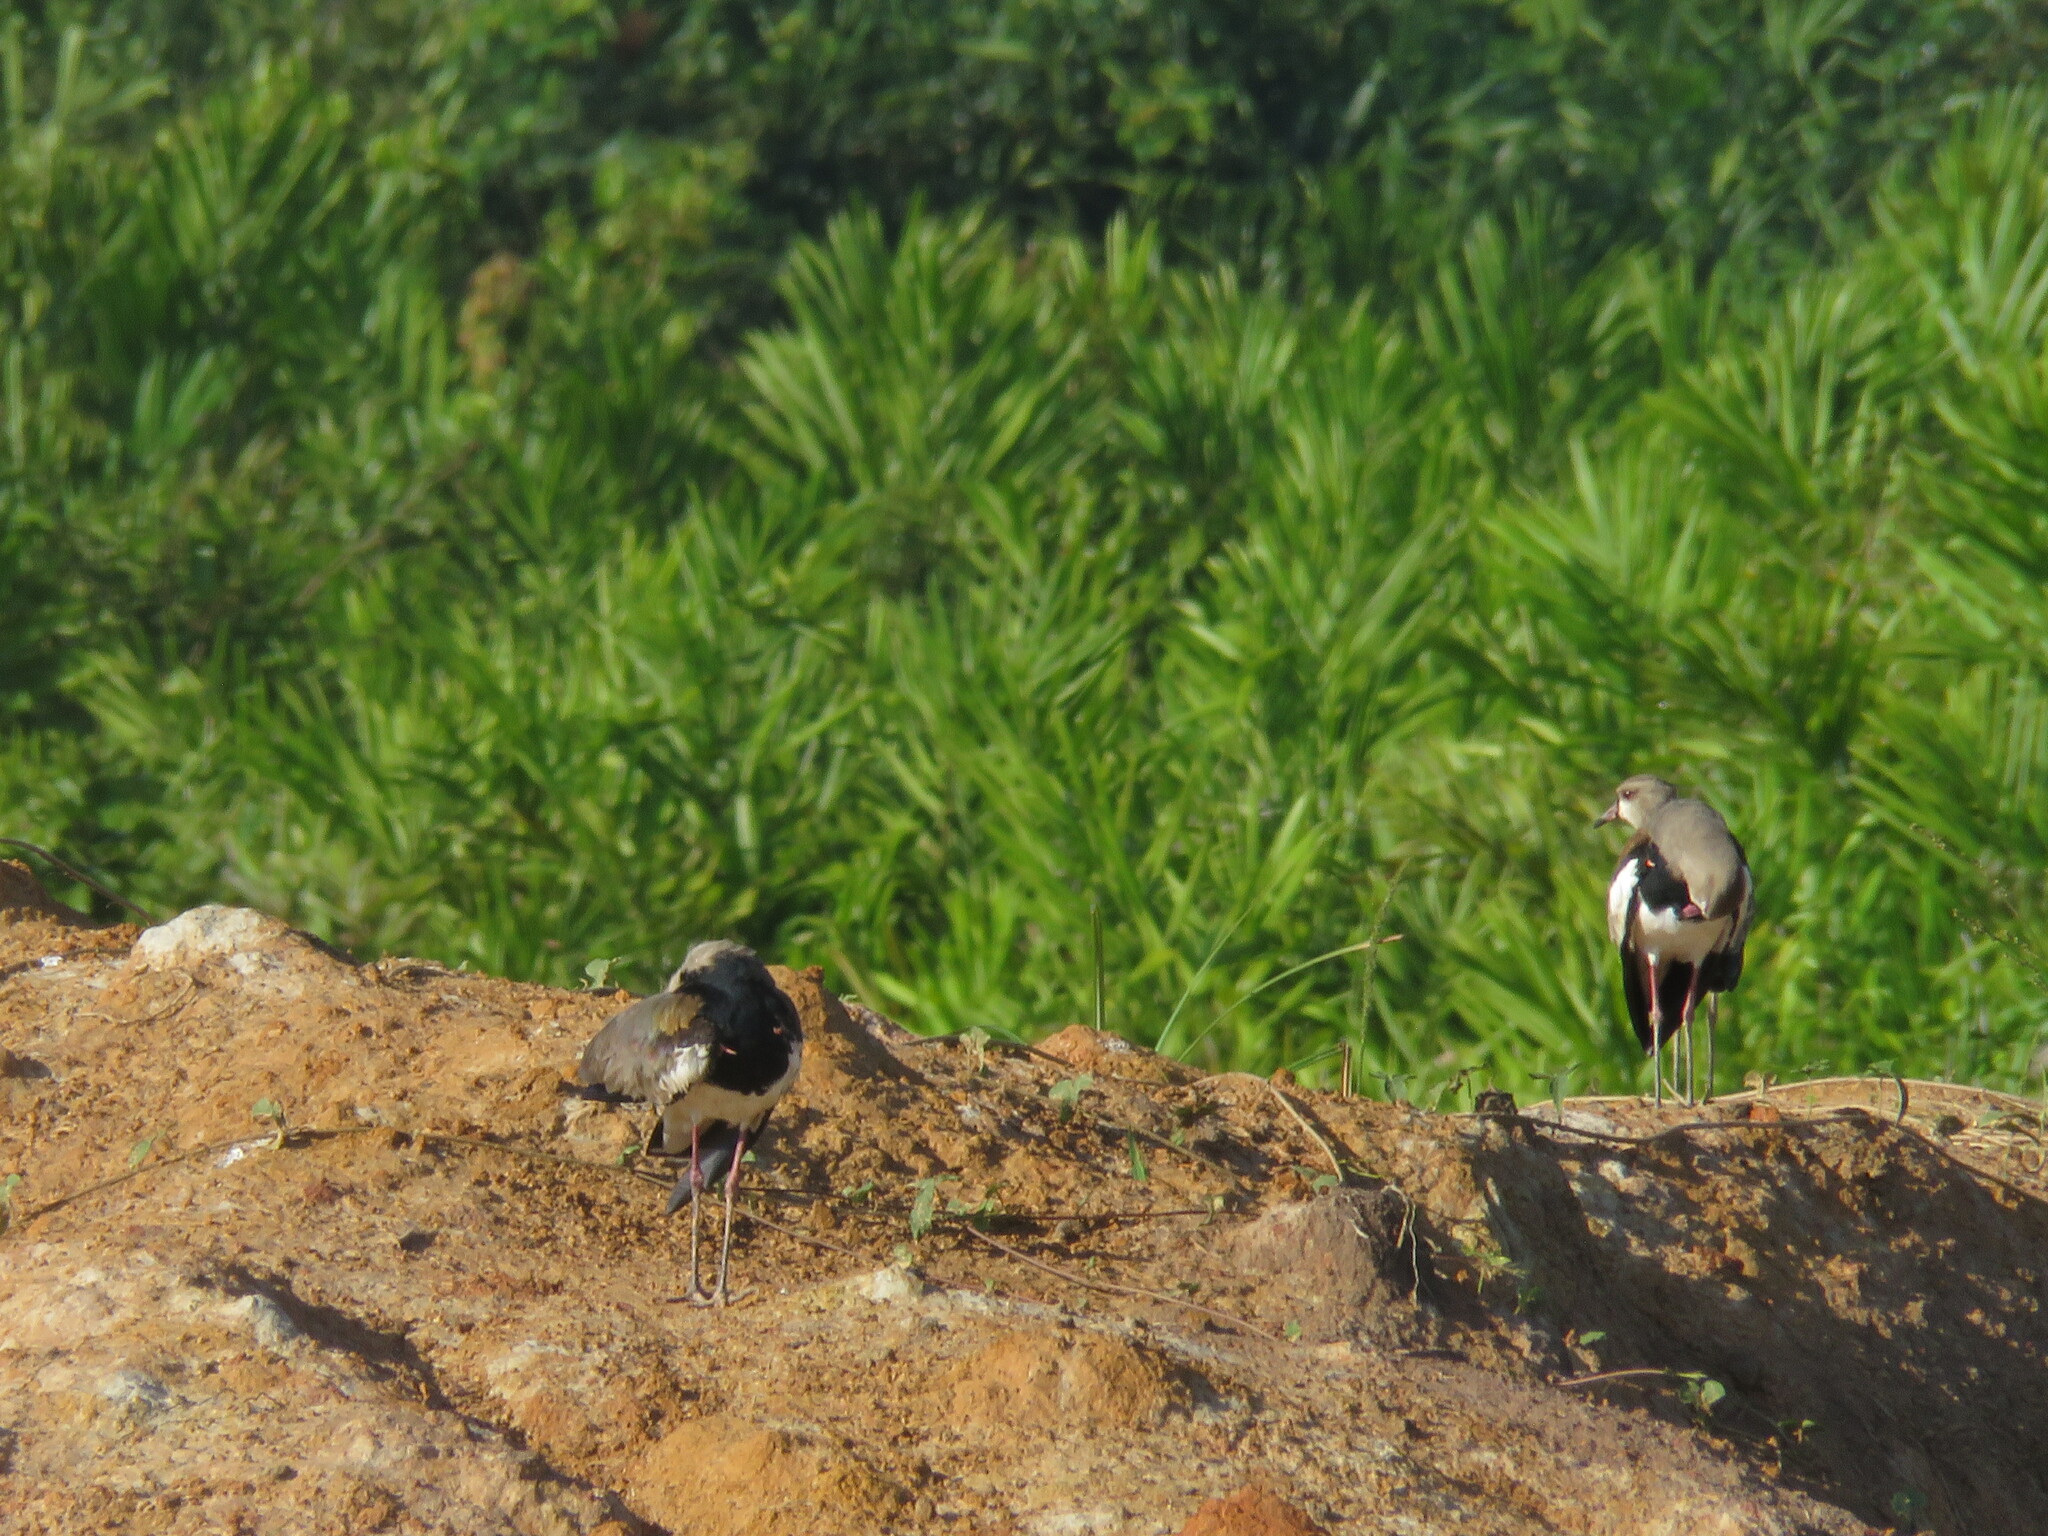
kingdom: Animalia
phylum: Chordata
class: Aves
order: Charadriiformes
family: Charadriidae
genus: Vanellus
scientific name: Vanellus chilensis
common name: Southern lapwing
